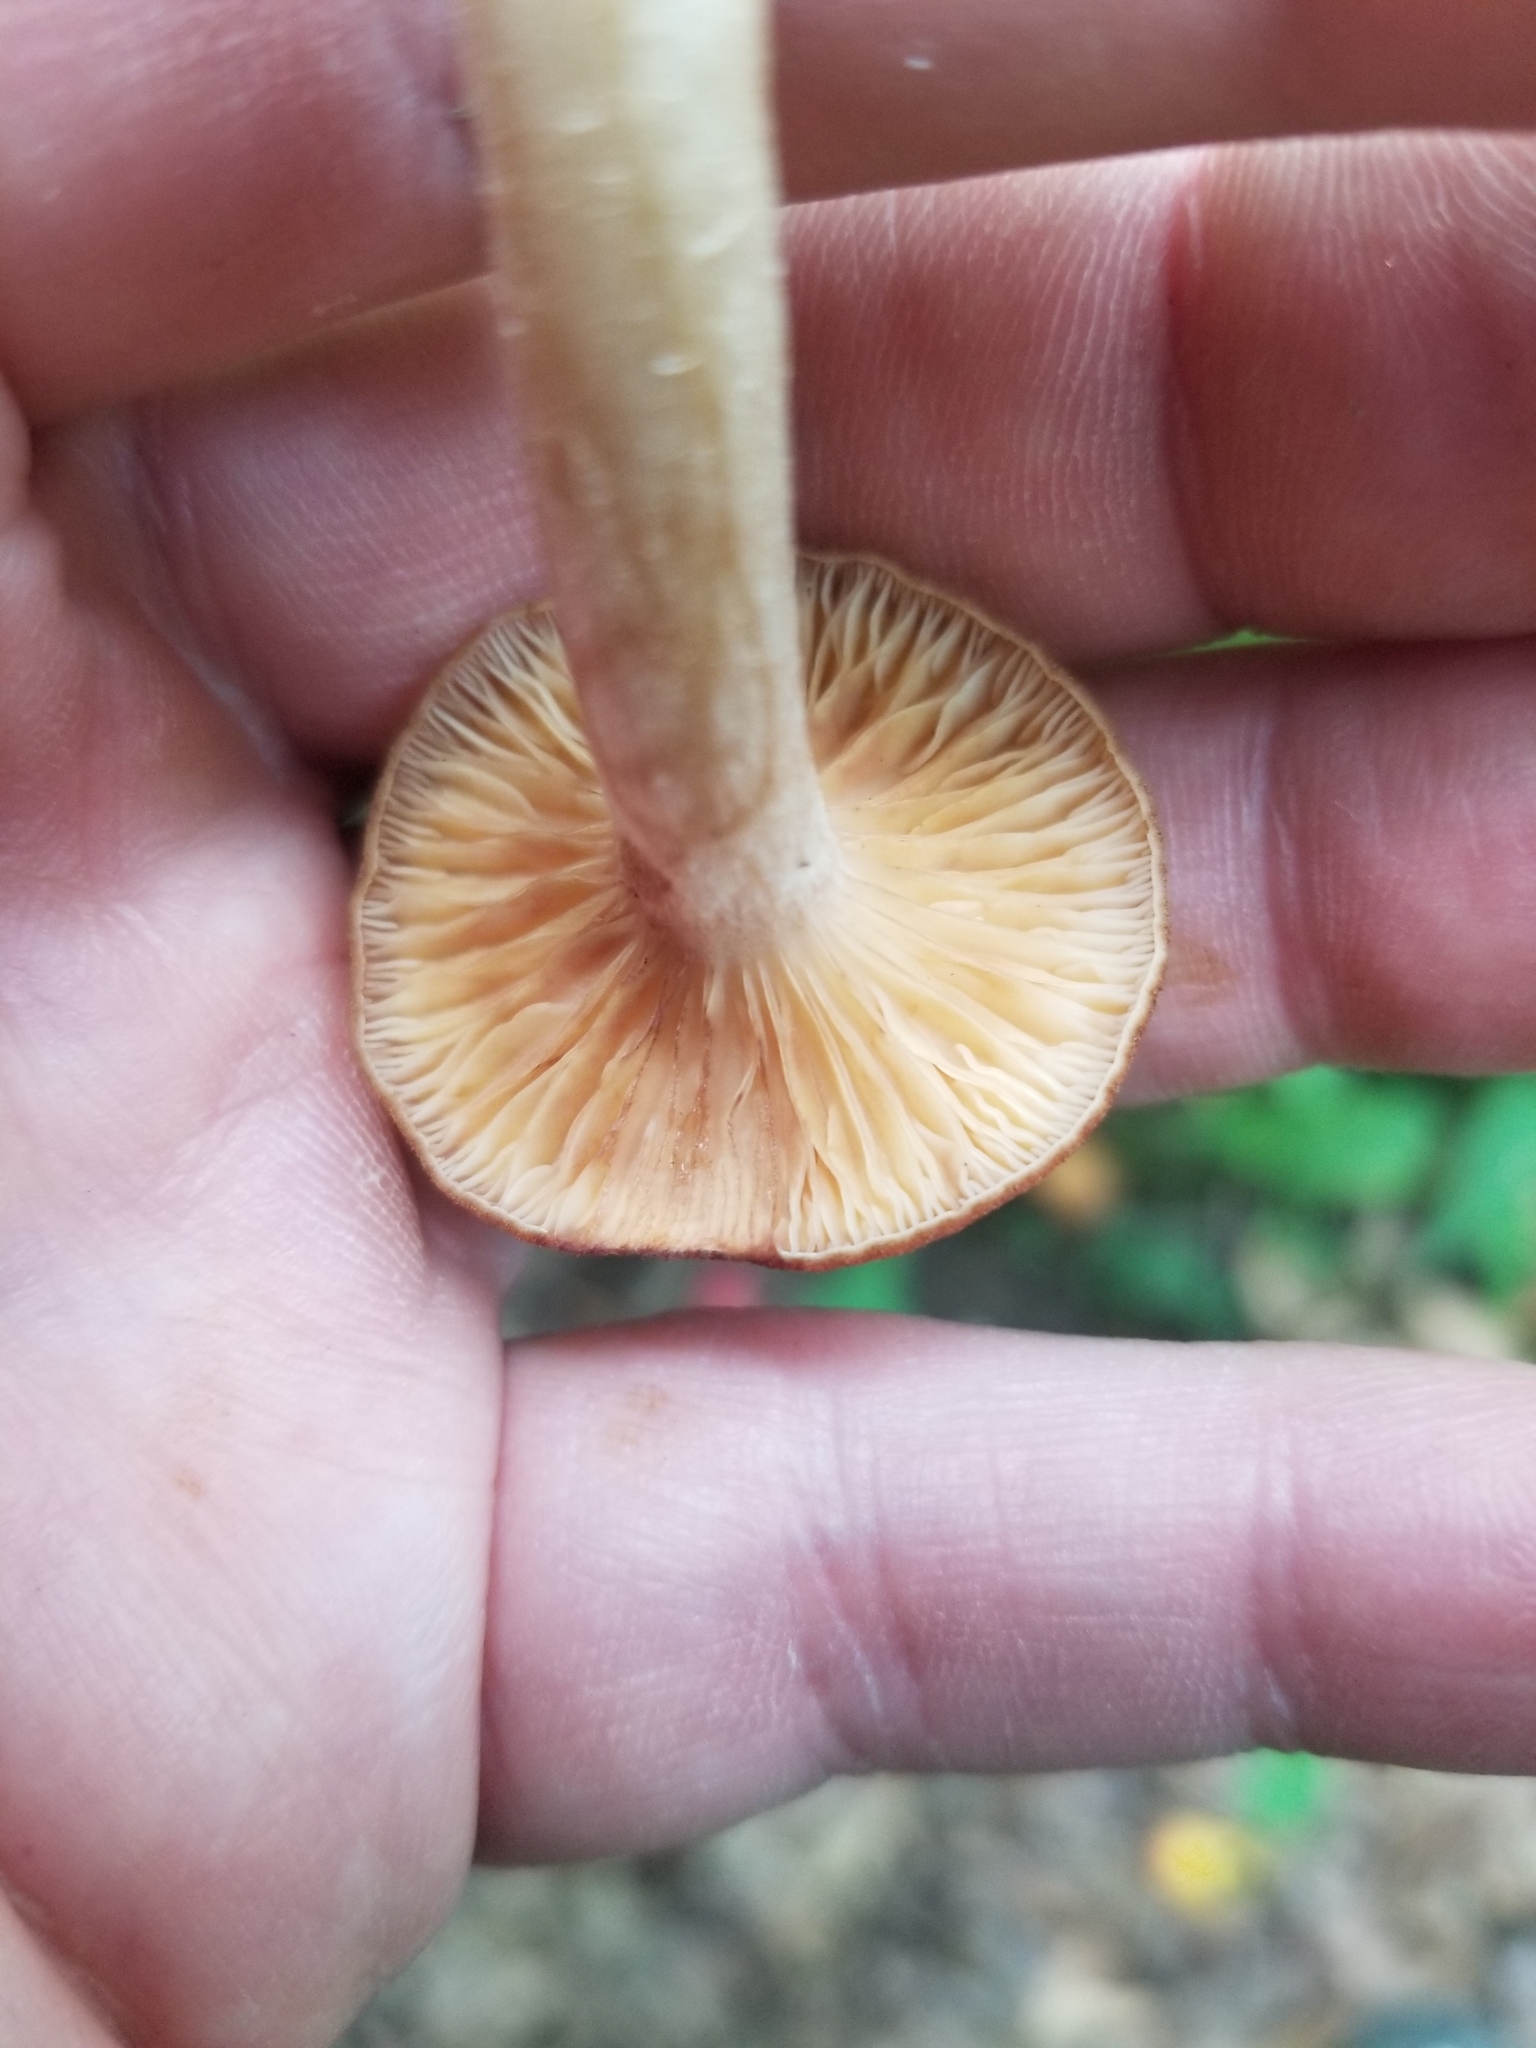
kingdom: Fungi
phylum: Basidiomycota
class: Agaricomycetes
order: Agaricales
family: Physalacriaceae
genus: Desarmillaria
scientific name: Desarmillaria caespitosa
